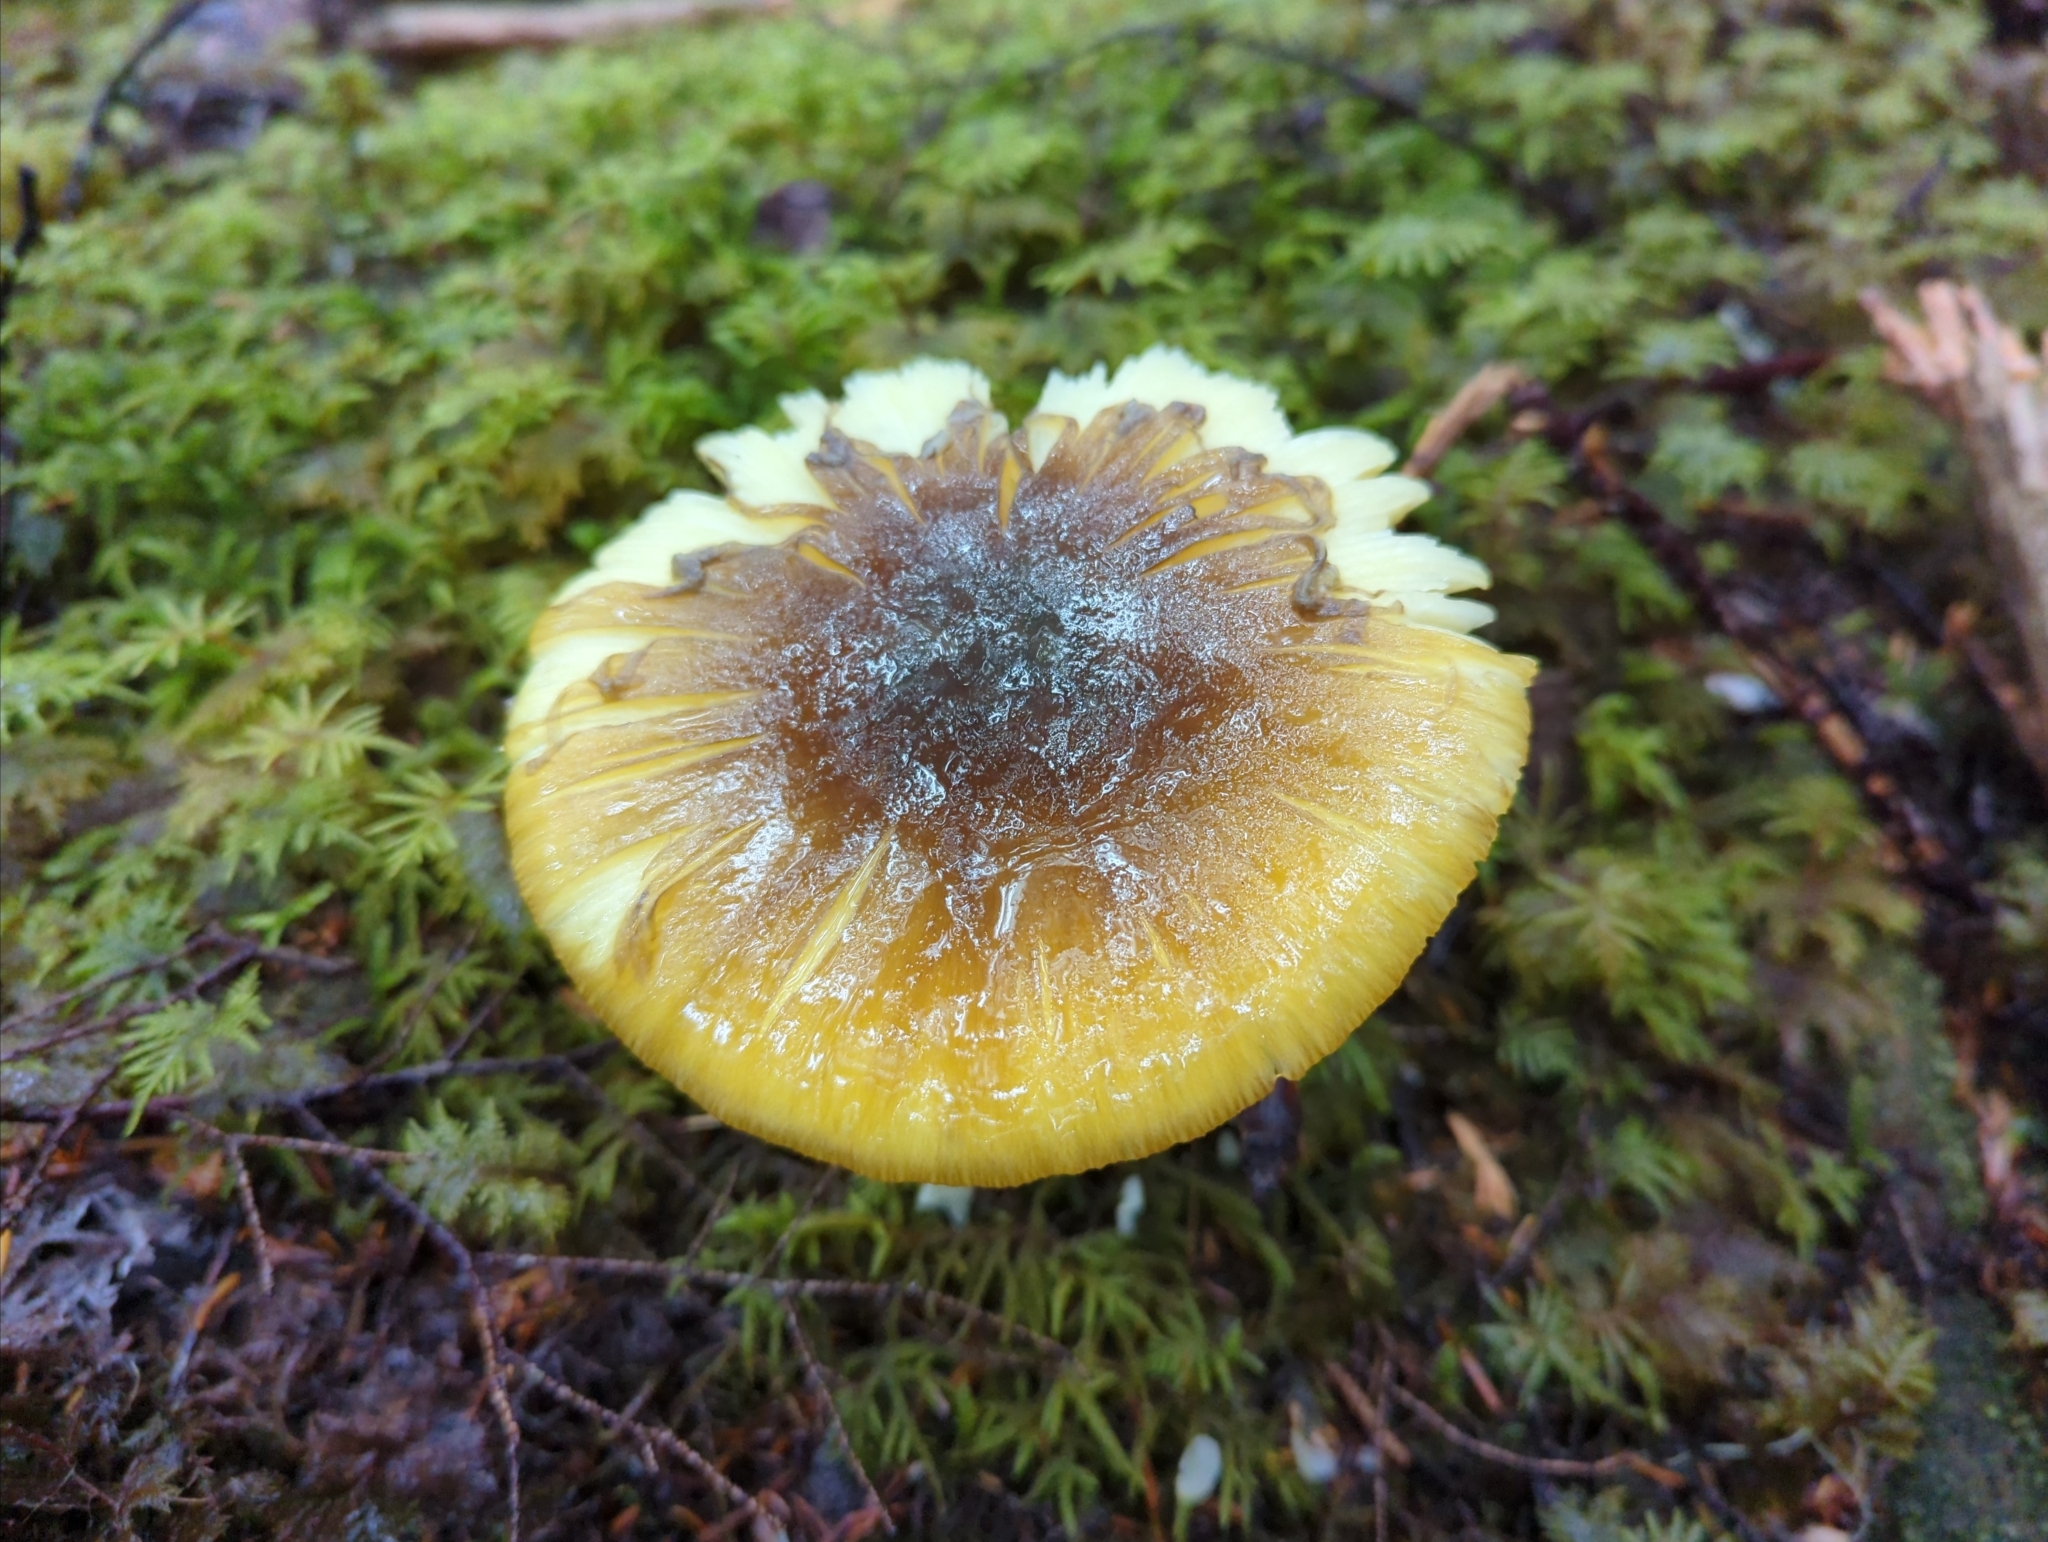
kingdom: Fungi
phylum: Basidiomycota
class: Agaricomycetes
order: Agaricales
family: Amanitaceae
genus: Amanita
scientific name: Amanita augusta
